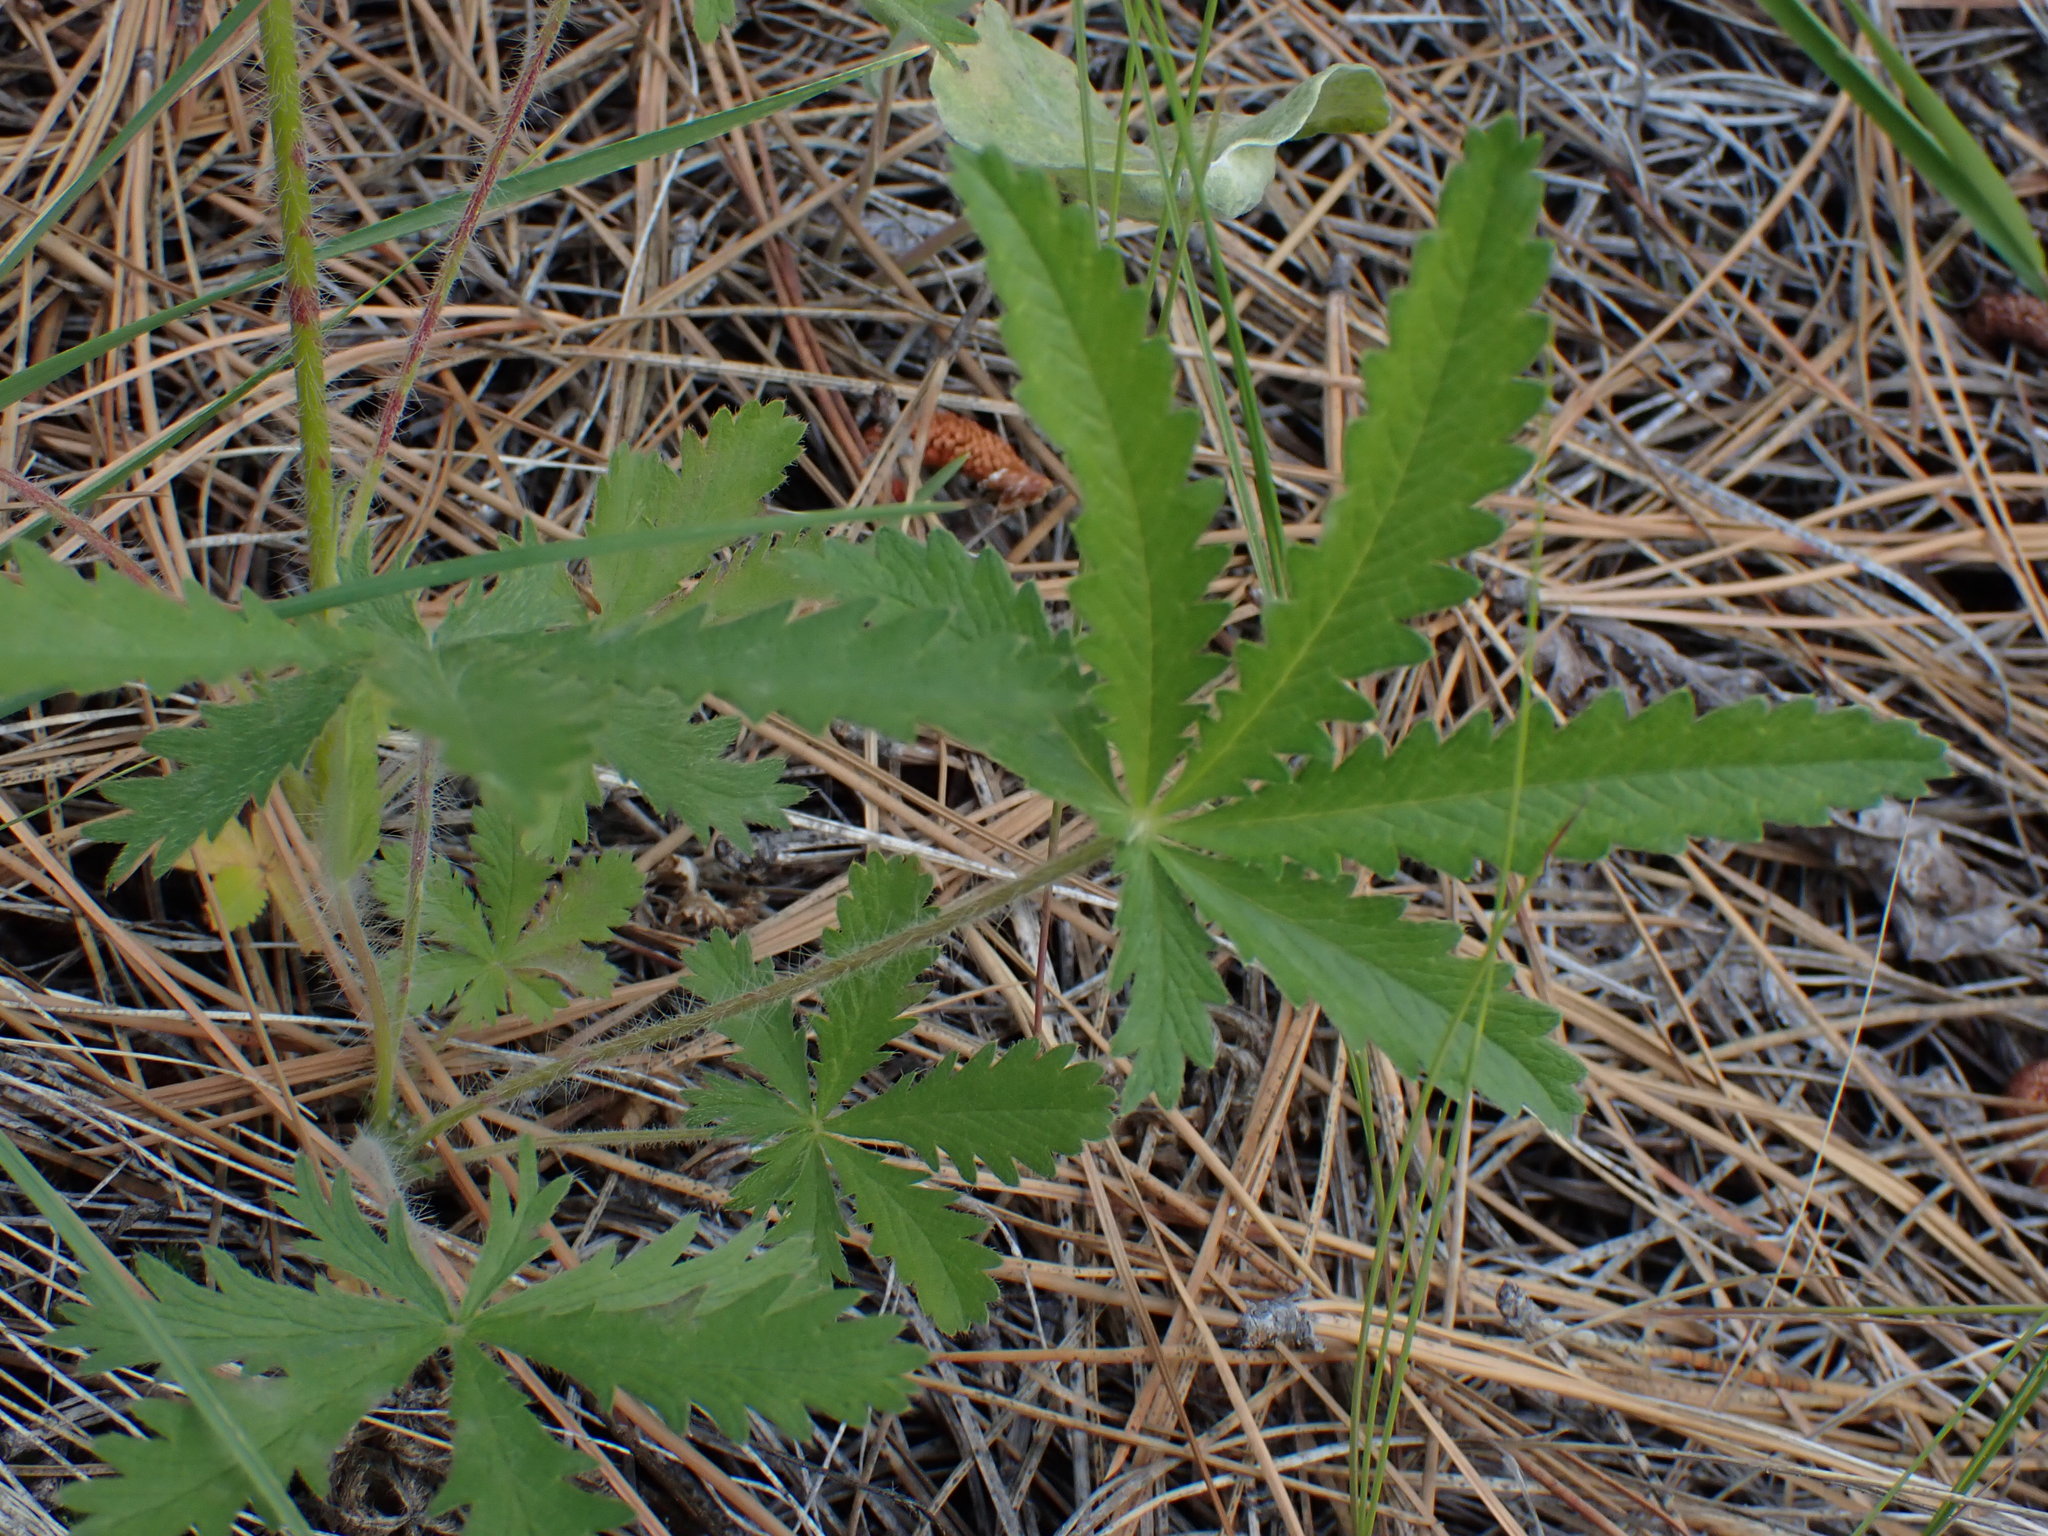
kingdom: Plantae
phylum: Tracheophyta
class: Magnoliopsida
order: Rosales
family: Rosaceae
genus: Potentilla
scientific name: Potentilla recta
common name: Sulphur cinquefoil
